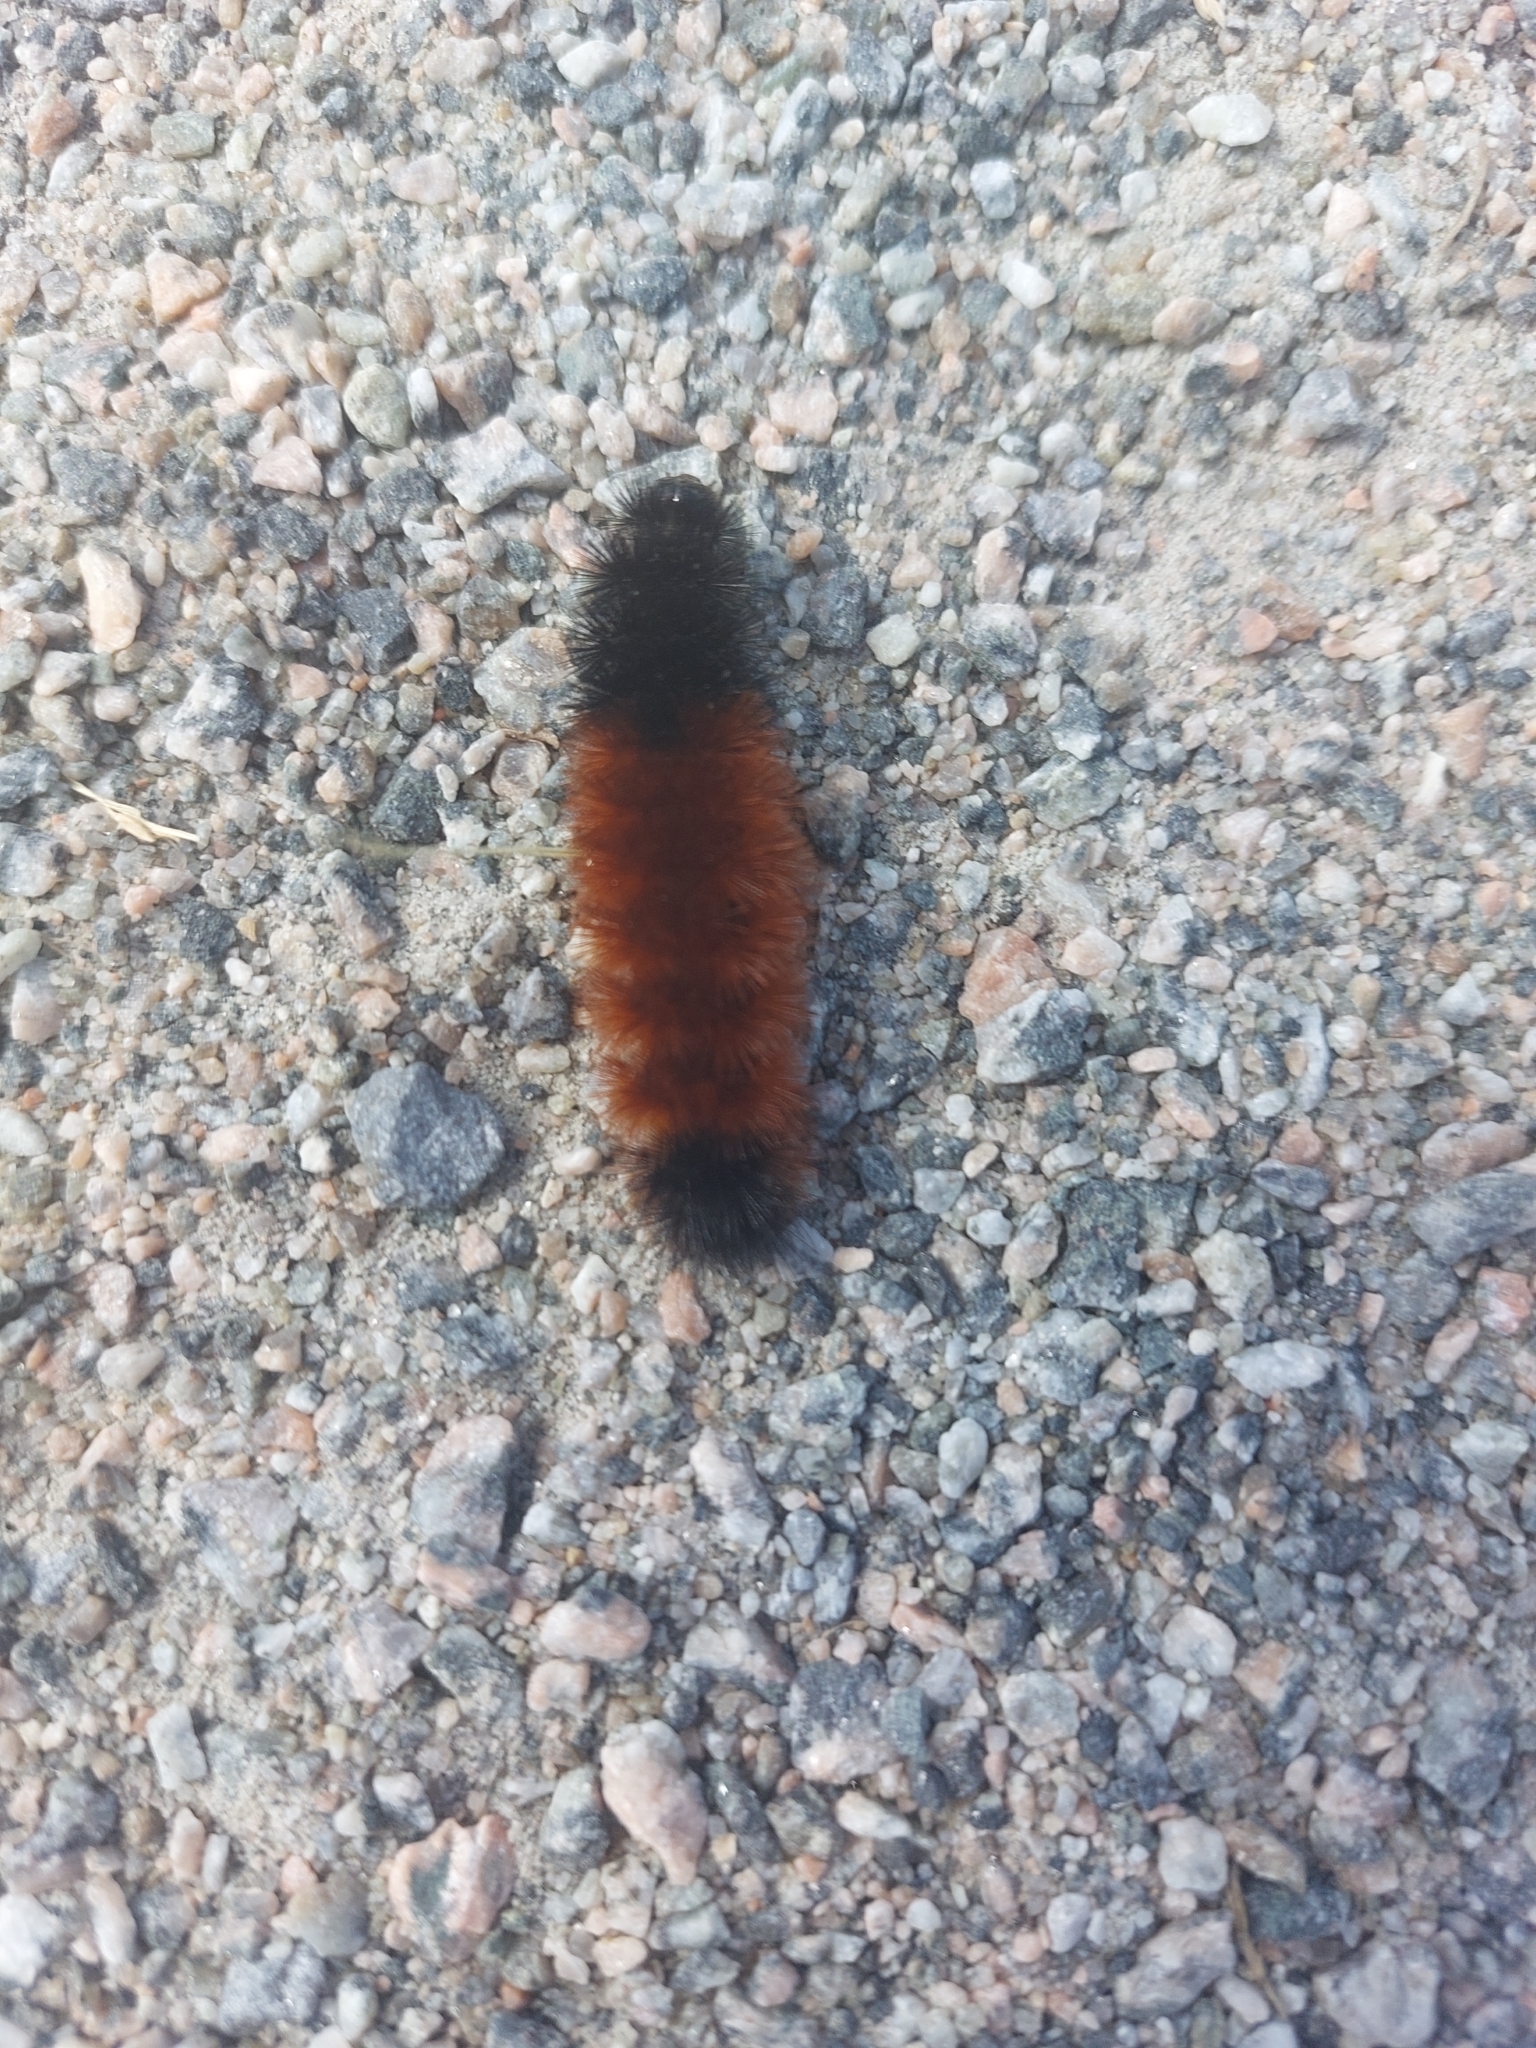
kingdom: Animalia
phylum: Arthropoda
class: Insecta
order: Lepidoptera
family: Erebidae
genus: Pyrrharctia
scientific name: Pyrrharctia isabella
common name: Isabella tiger moth
